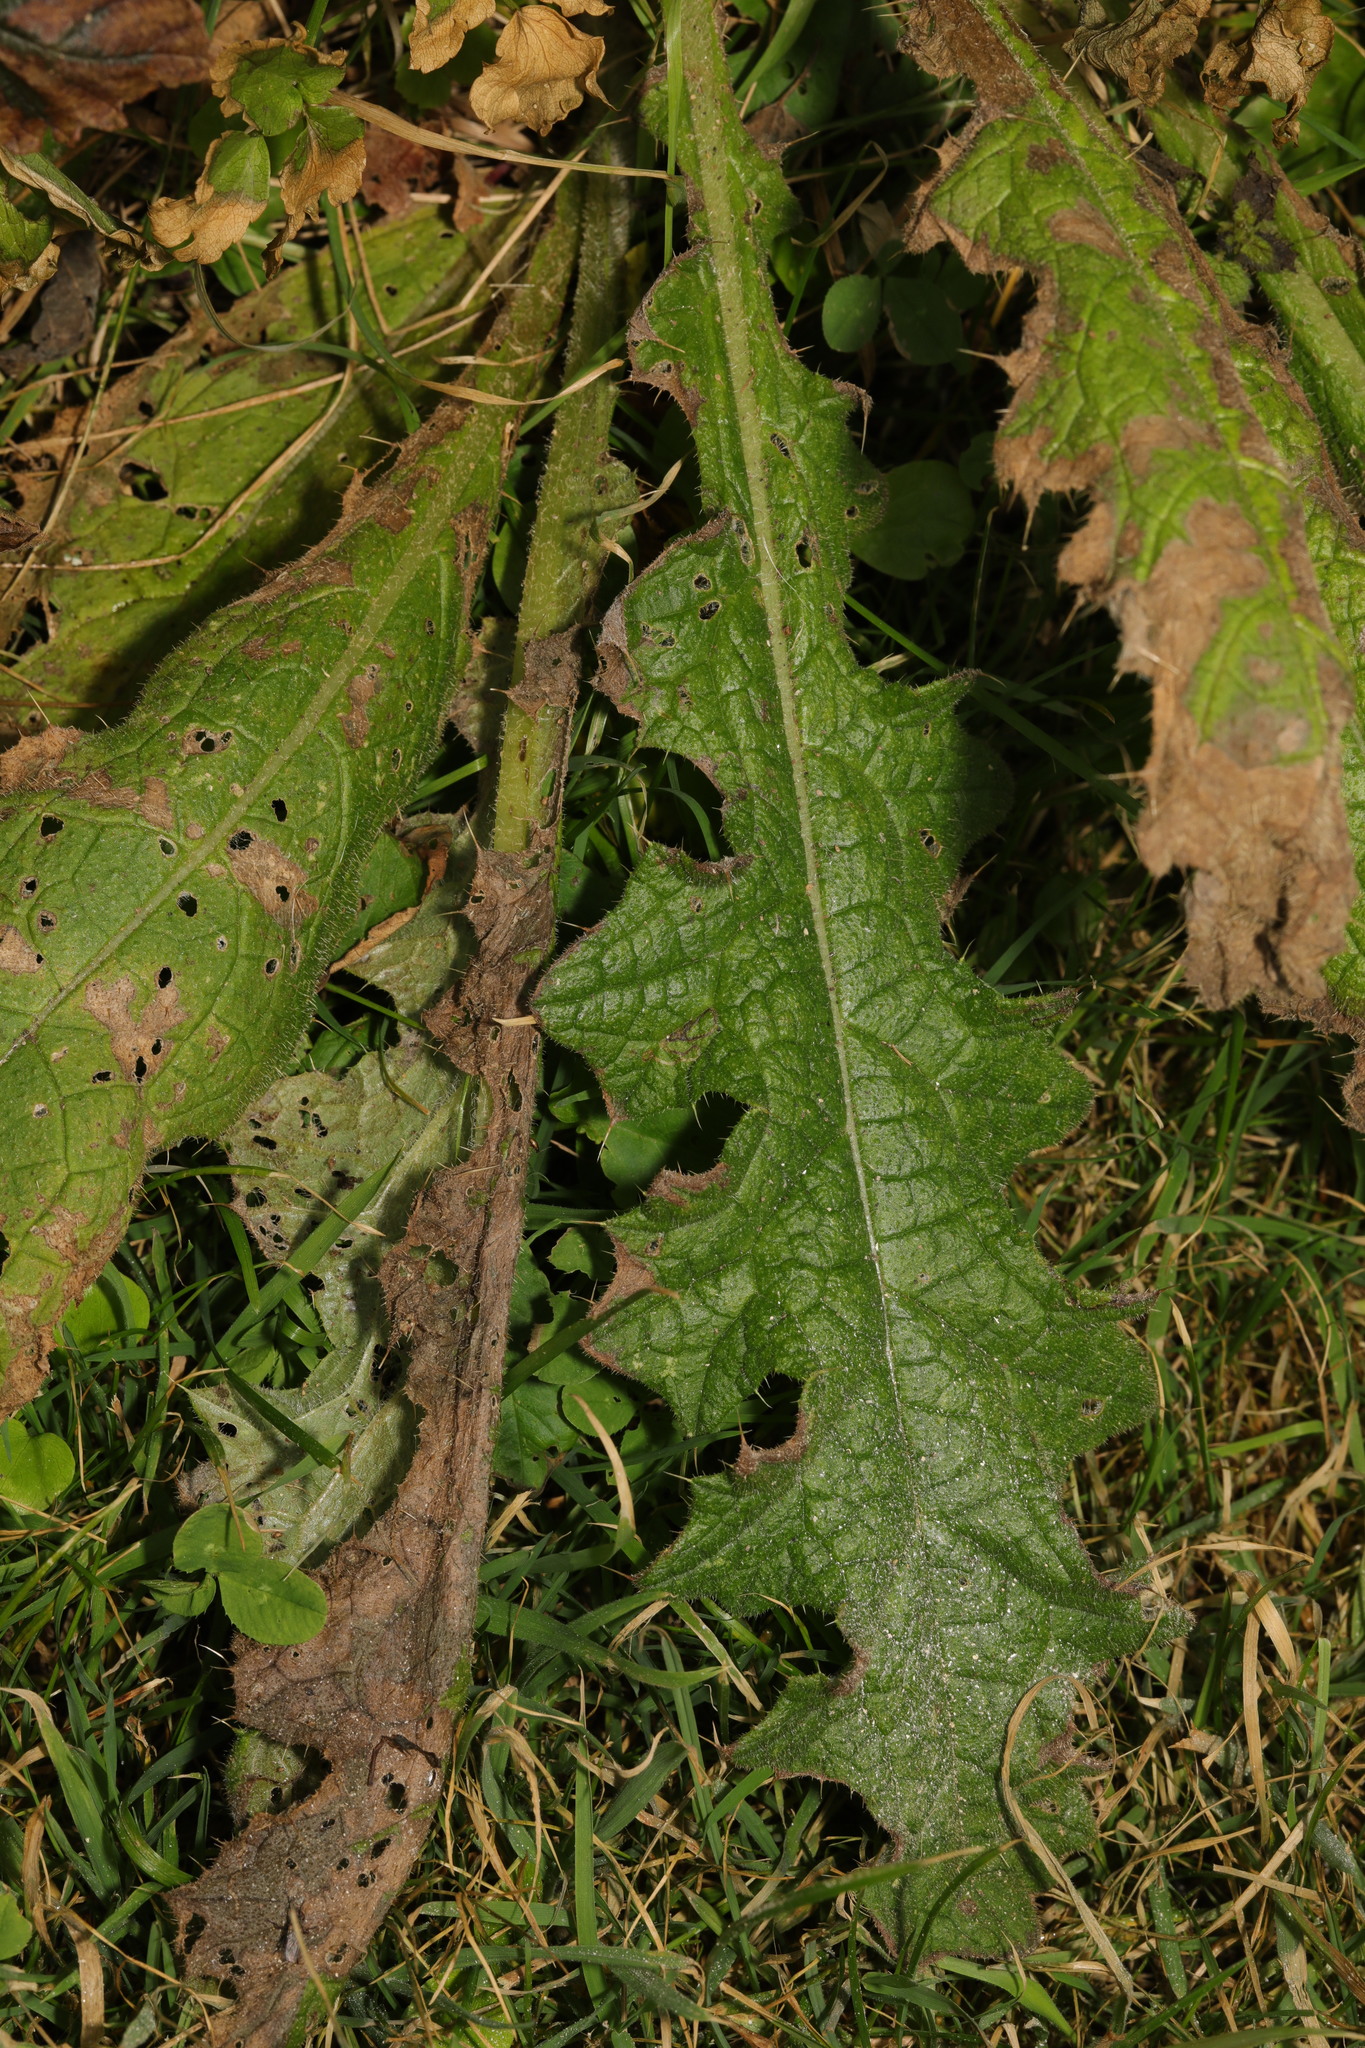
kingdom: Plantae
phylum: Tracheophyta
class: Magnoliopsida
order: Asterales
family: Asteraceae
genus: Cirsium
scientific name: Cirsium vulgare
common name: Bull thistle
